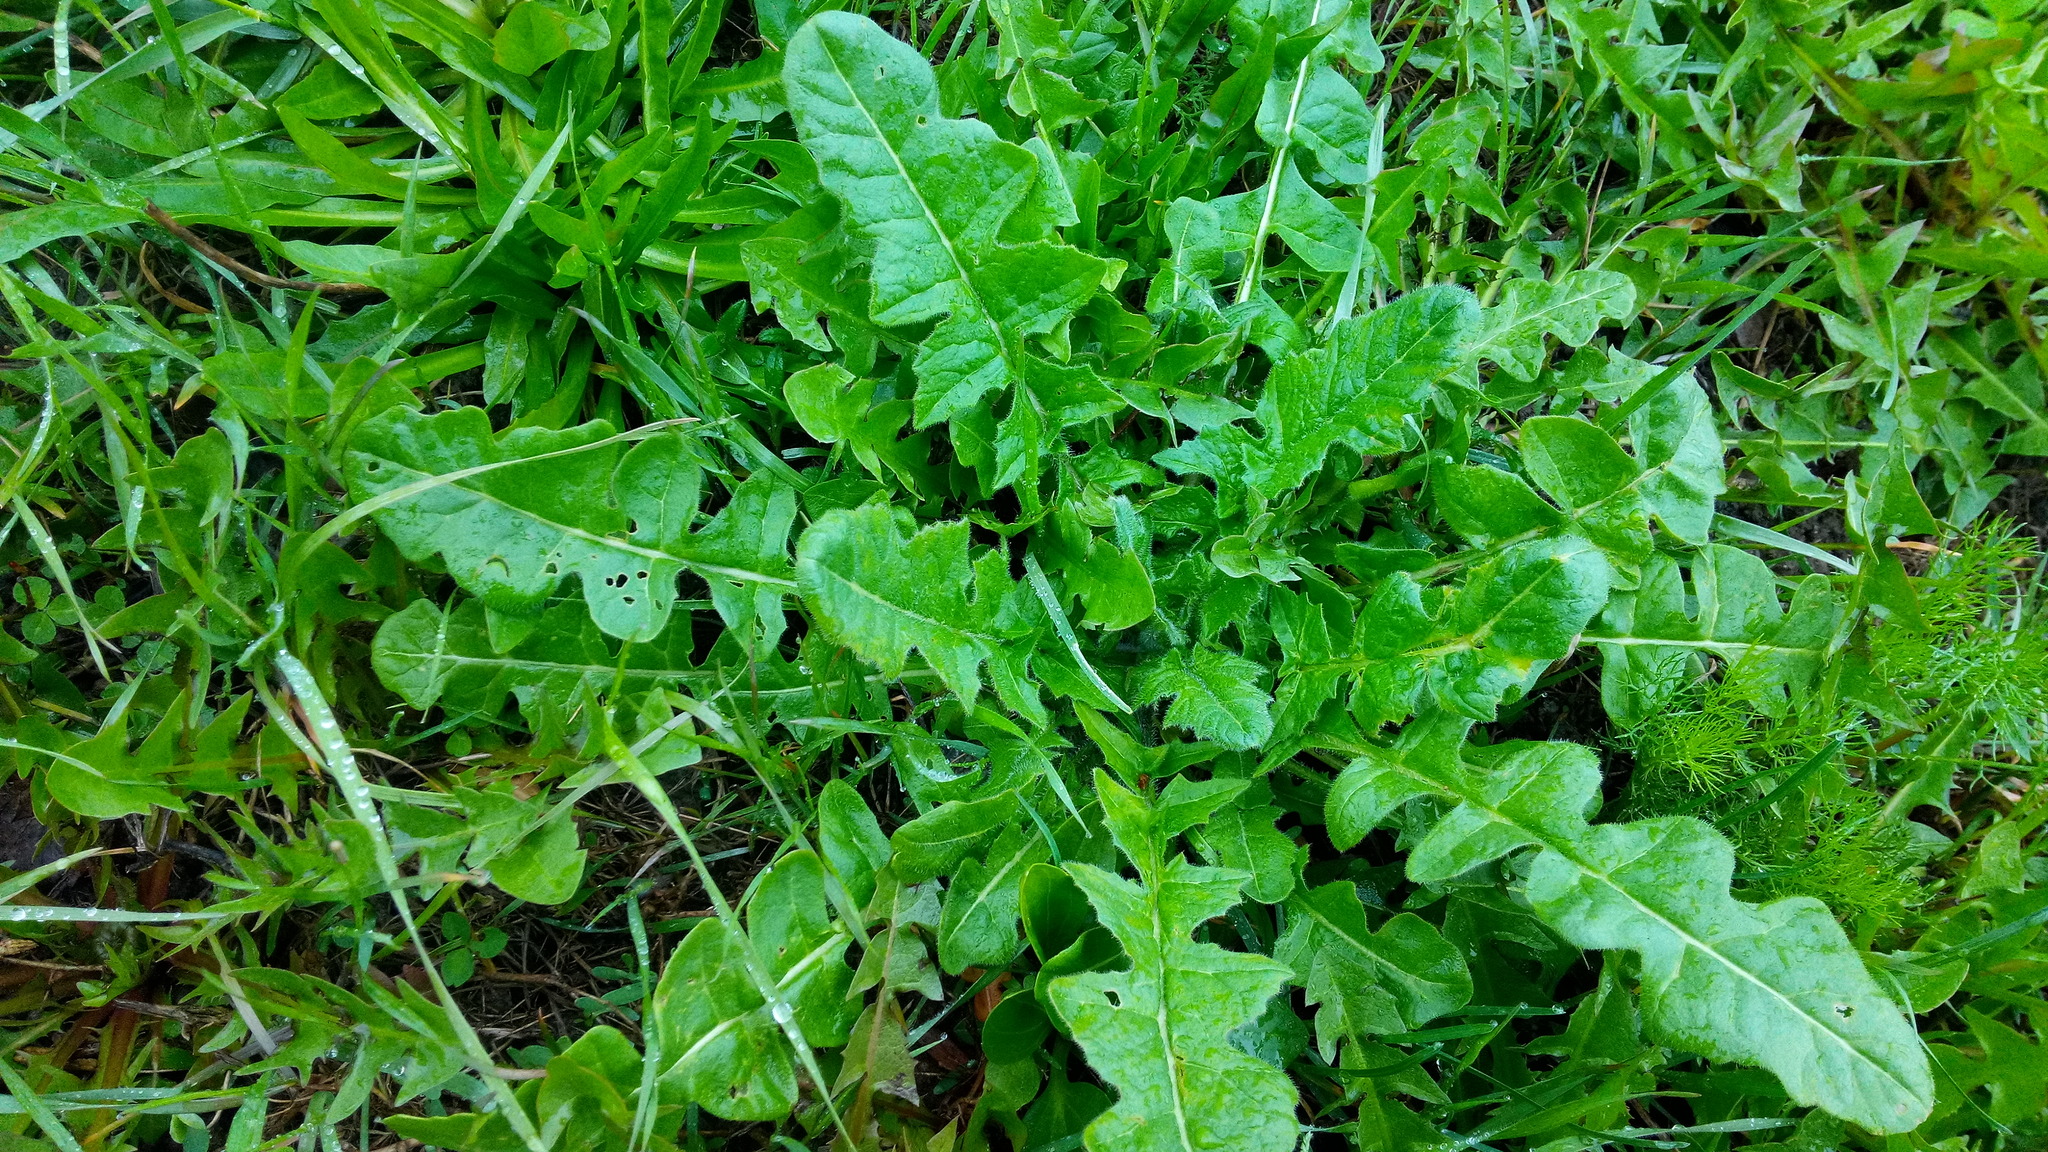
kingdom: Plantae
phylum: Tracheophyta
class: Magnoliopsida
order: Brassicales
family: Brassicaceae
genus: Sisymbrium
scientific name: Sisymbrium loeselii
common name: False london-rocket
